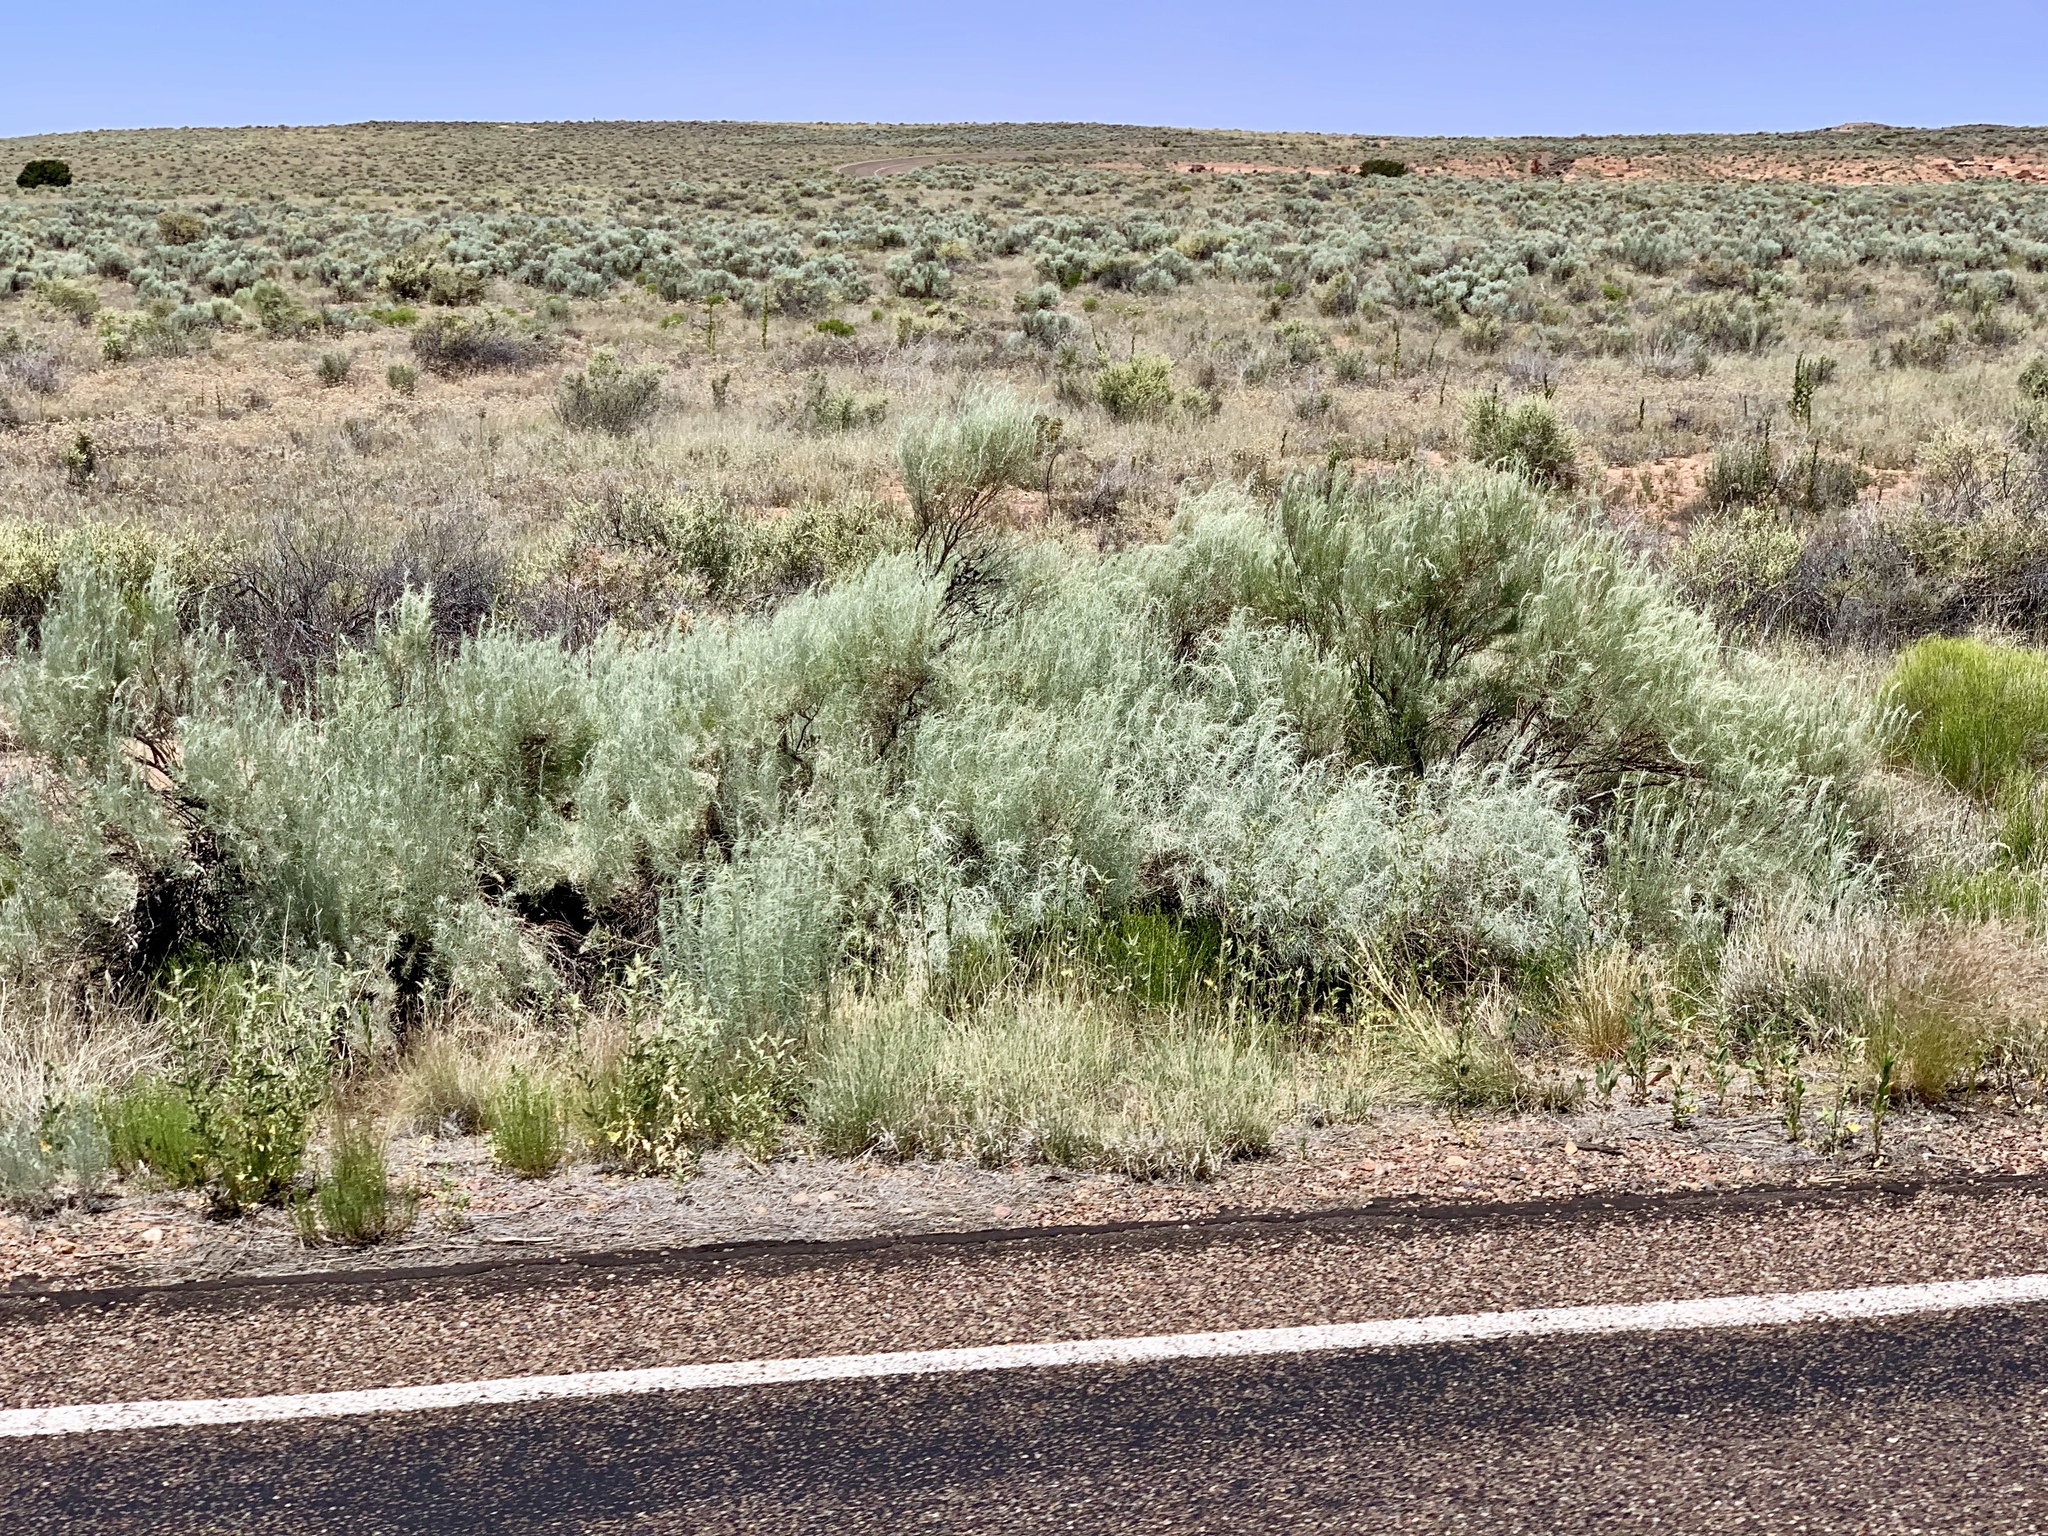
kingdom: Plantae
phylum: Tracheophyta
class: Magnoliopsida
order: Asterales
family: Asteraceae
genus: Artemisia
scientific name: Artemisia filifolia
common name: Sand-sage
